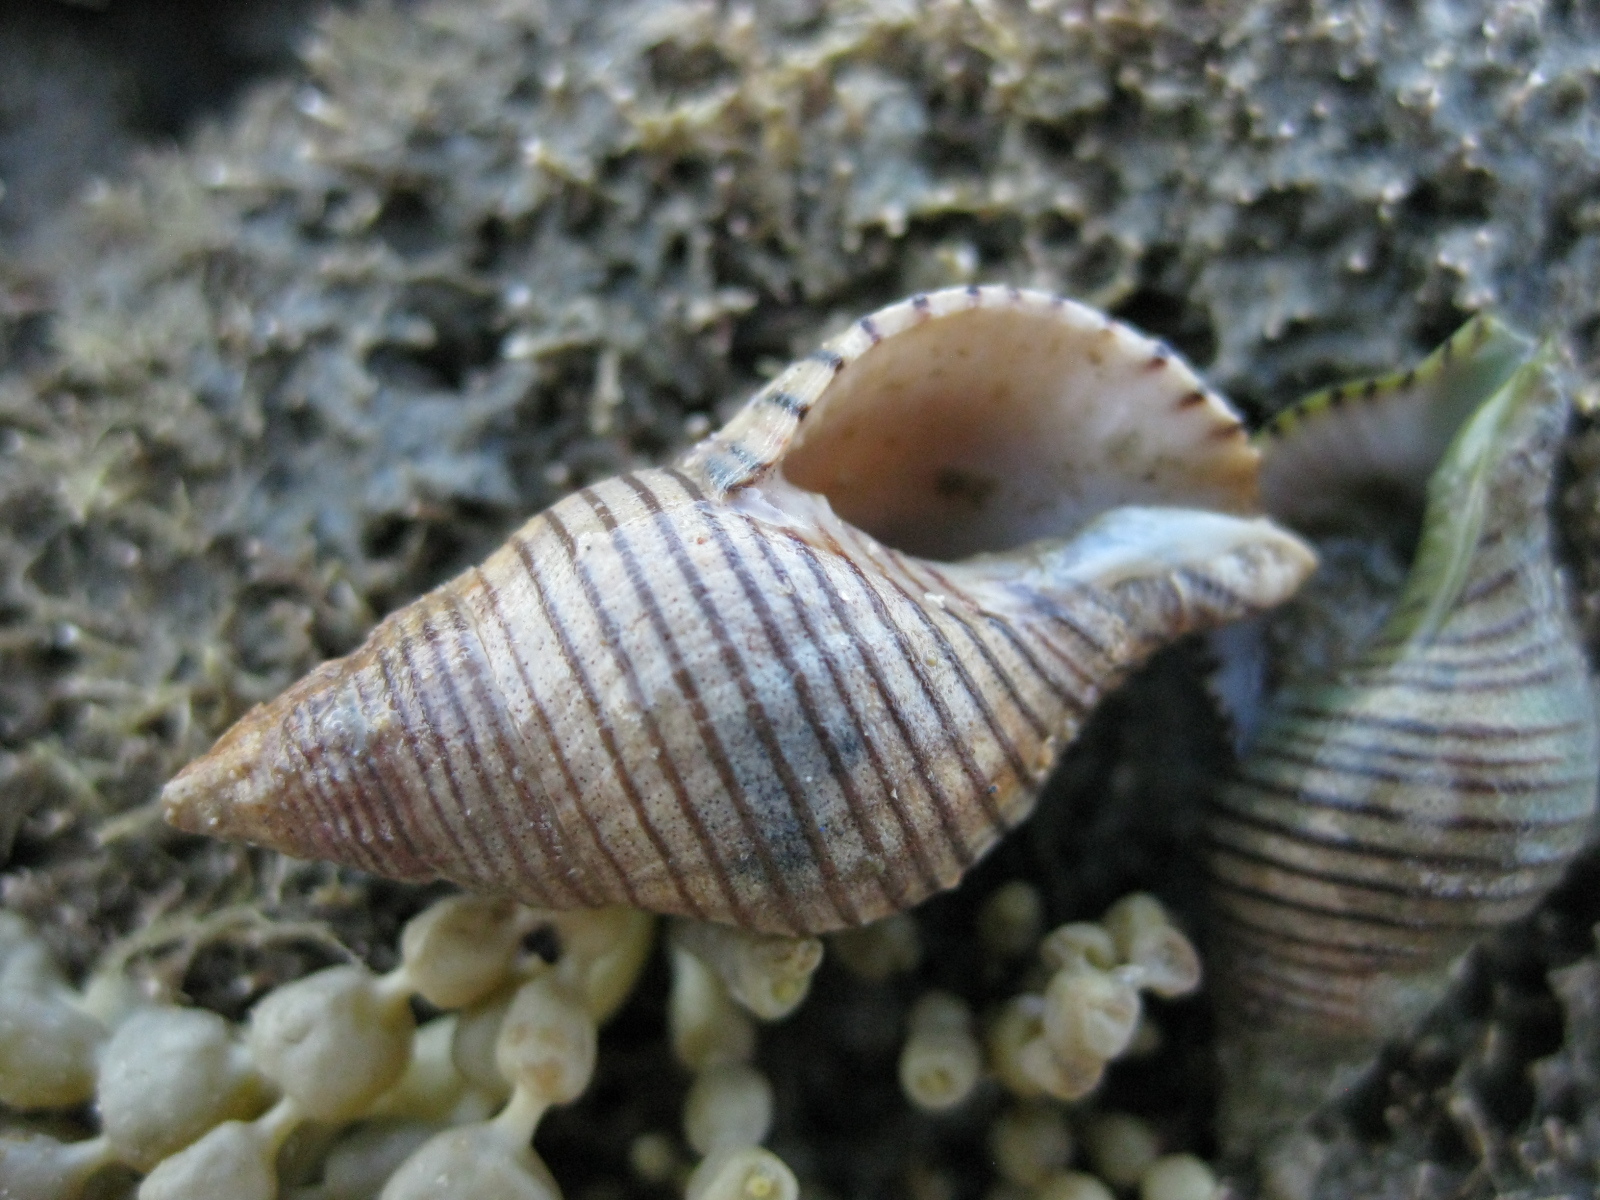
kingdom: Animalia
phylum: Mollusca
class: Gastropoda
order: Neogastropoda
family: Tudiclidae
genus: Buccinulum
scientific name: Buccinulum linea
